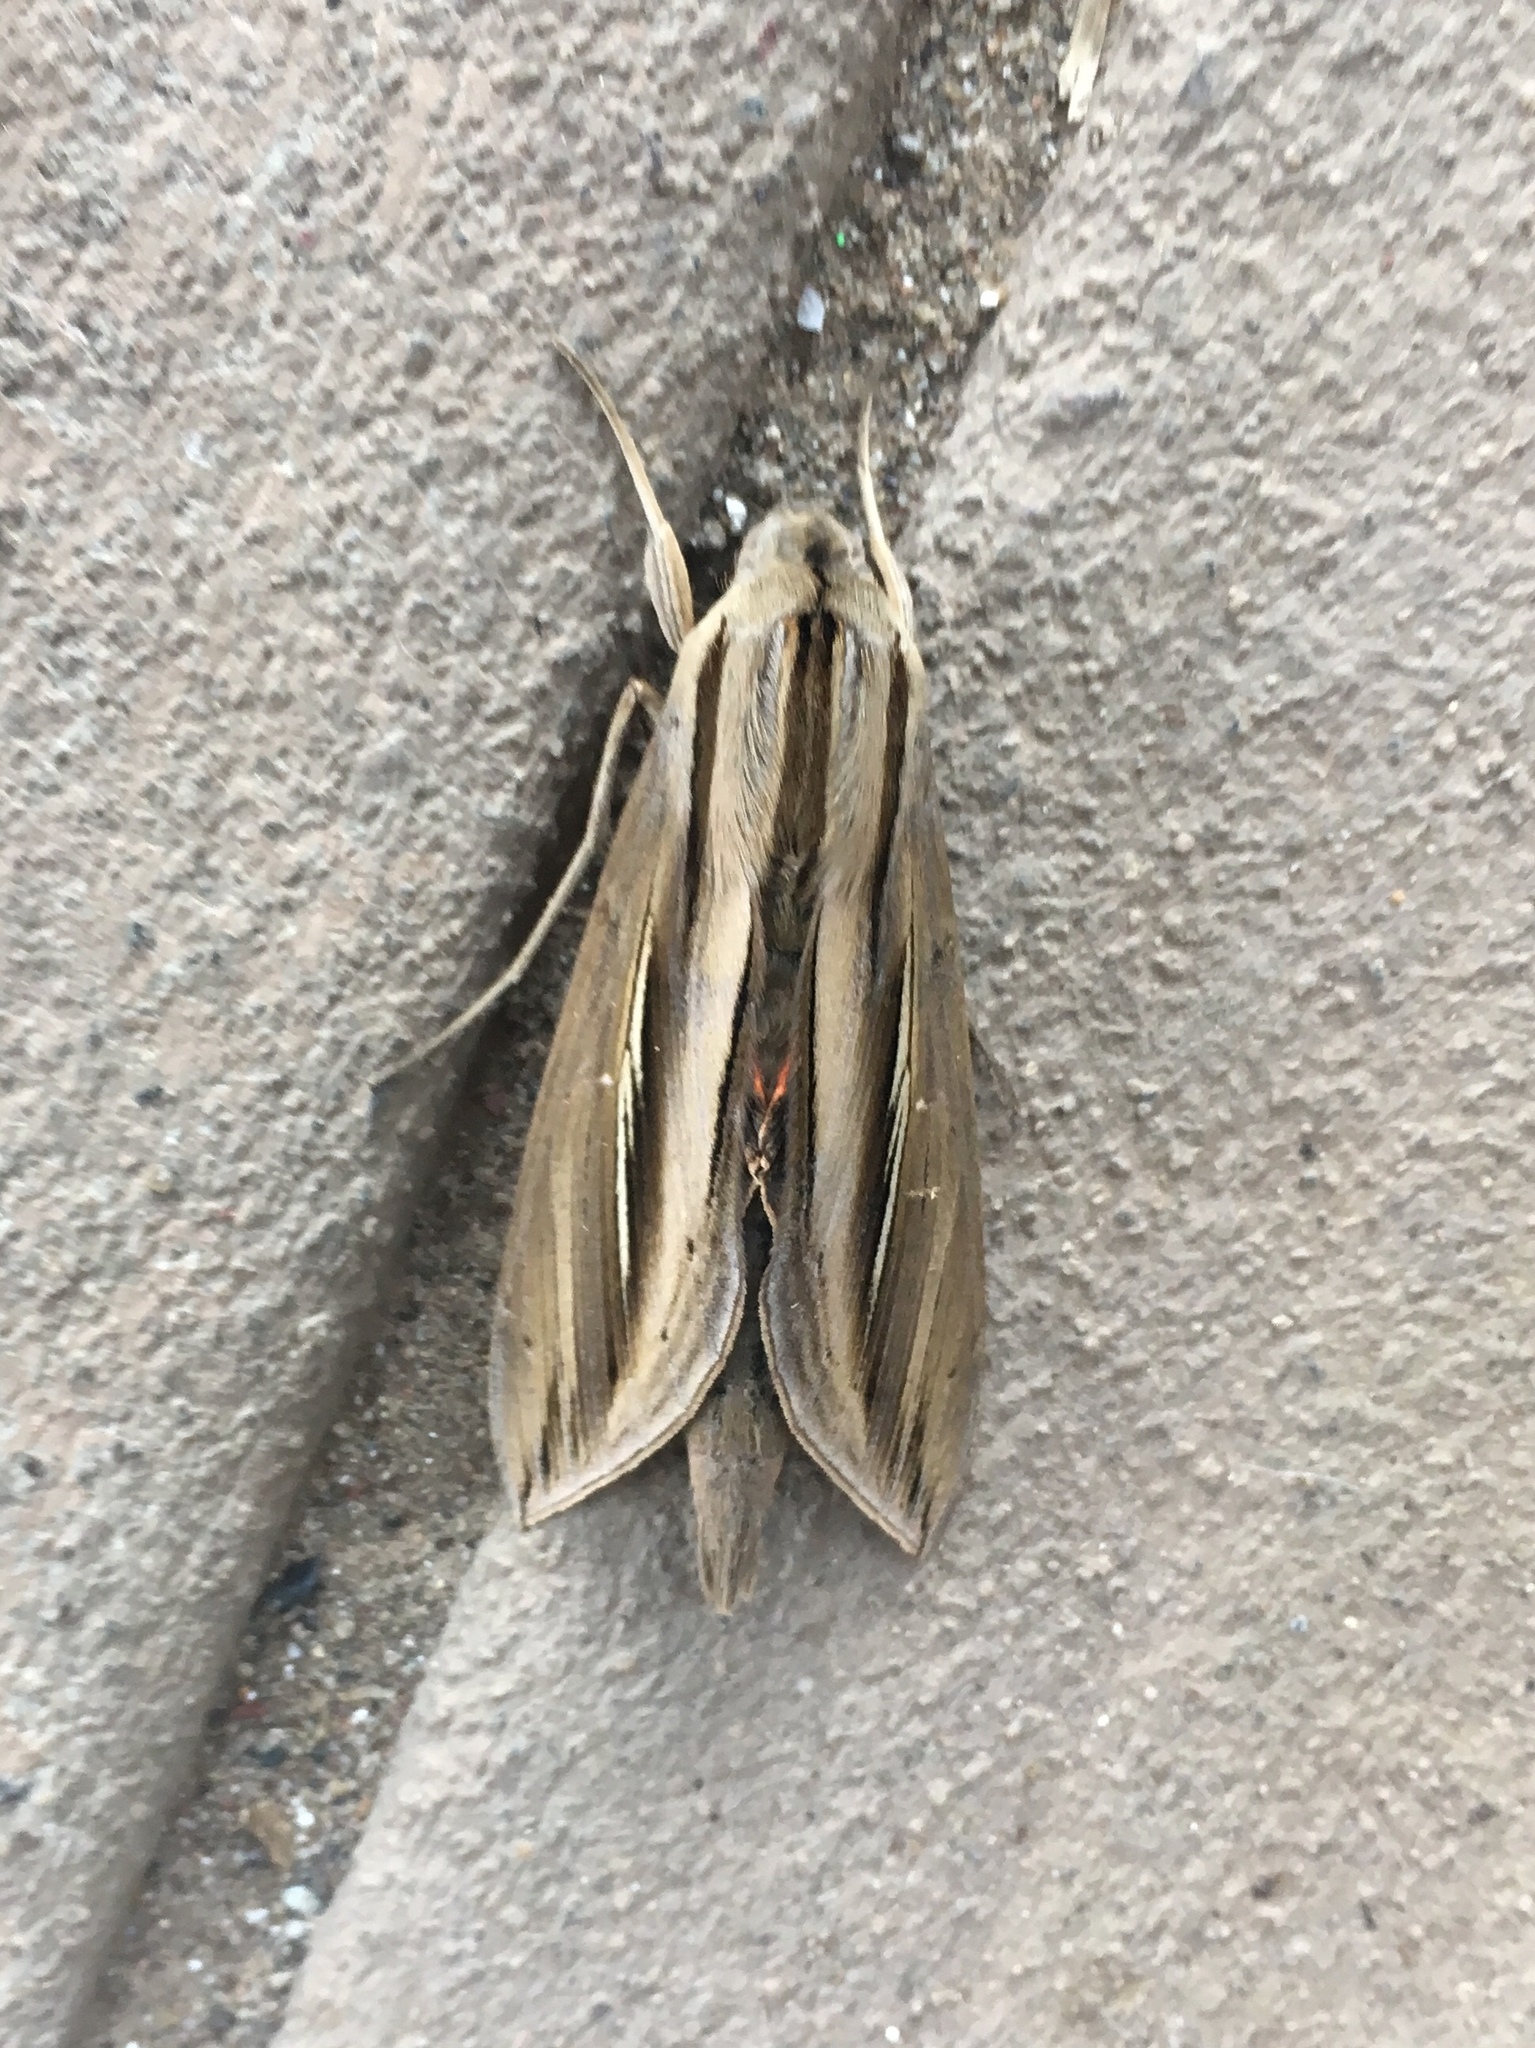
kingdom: Animalia
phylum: Arthropoda
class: Insecta
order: Lepidoptera
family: Sphingidae
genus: Phryxus
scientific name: Phryxus caicus
